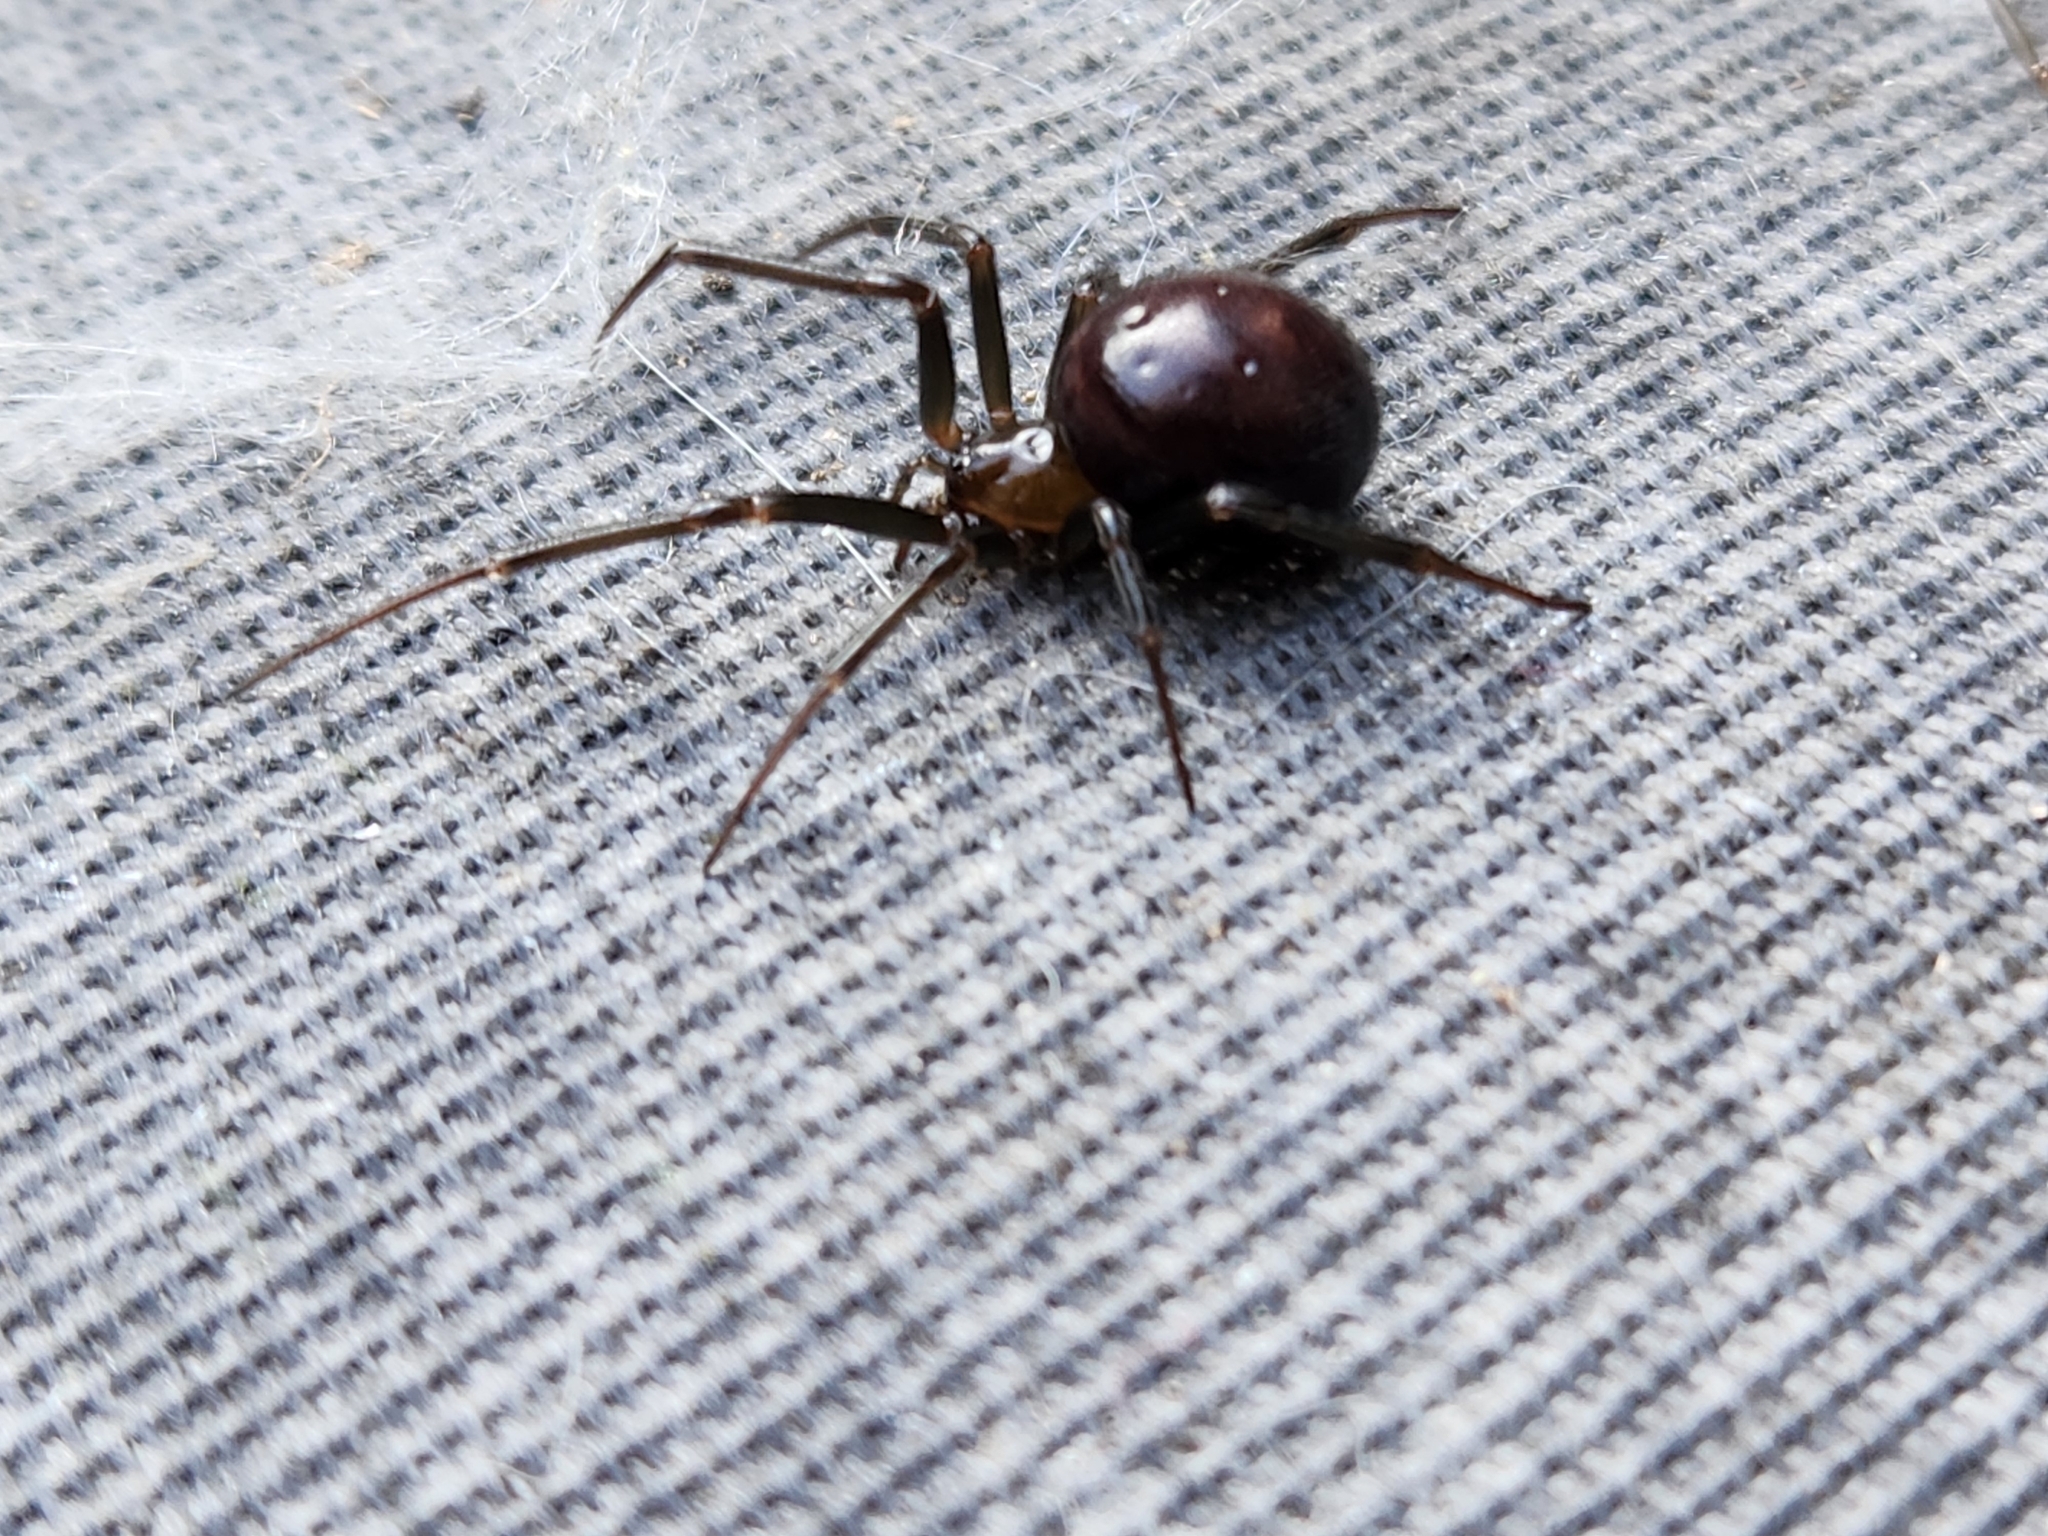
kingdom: Animalia
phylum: Arthropoda
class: Arachnida
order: Araneae
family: Theridiidae
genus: Steatoda
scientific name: Steatoda grossa
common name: False black widow
